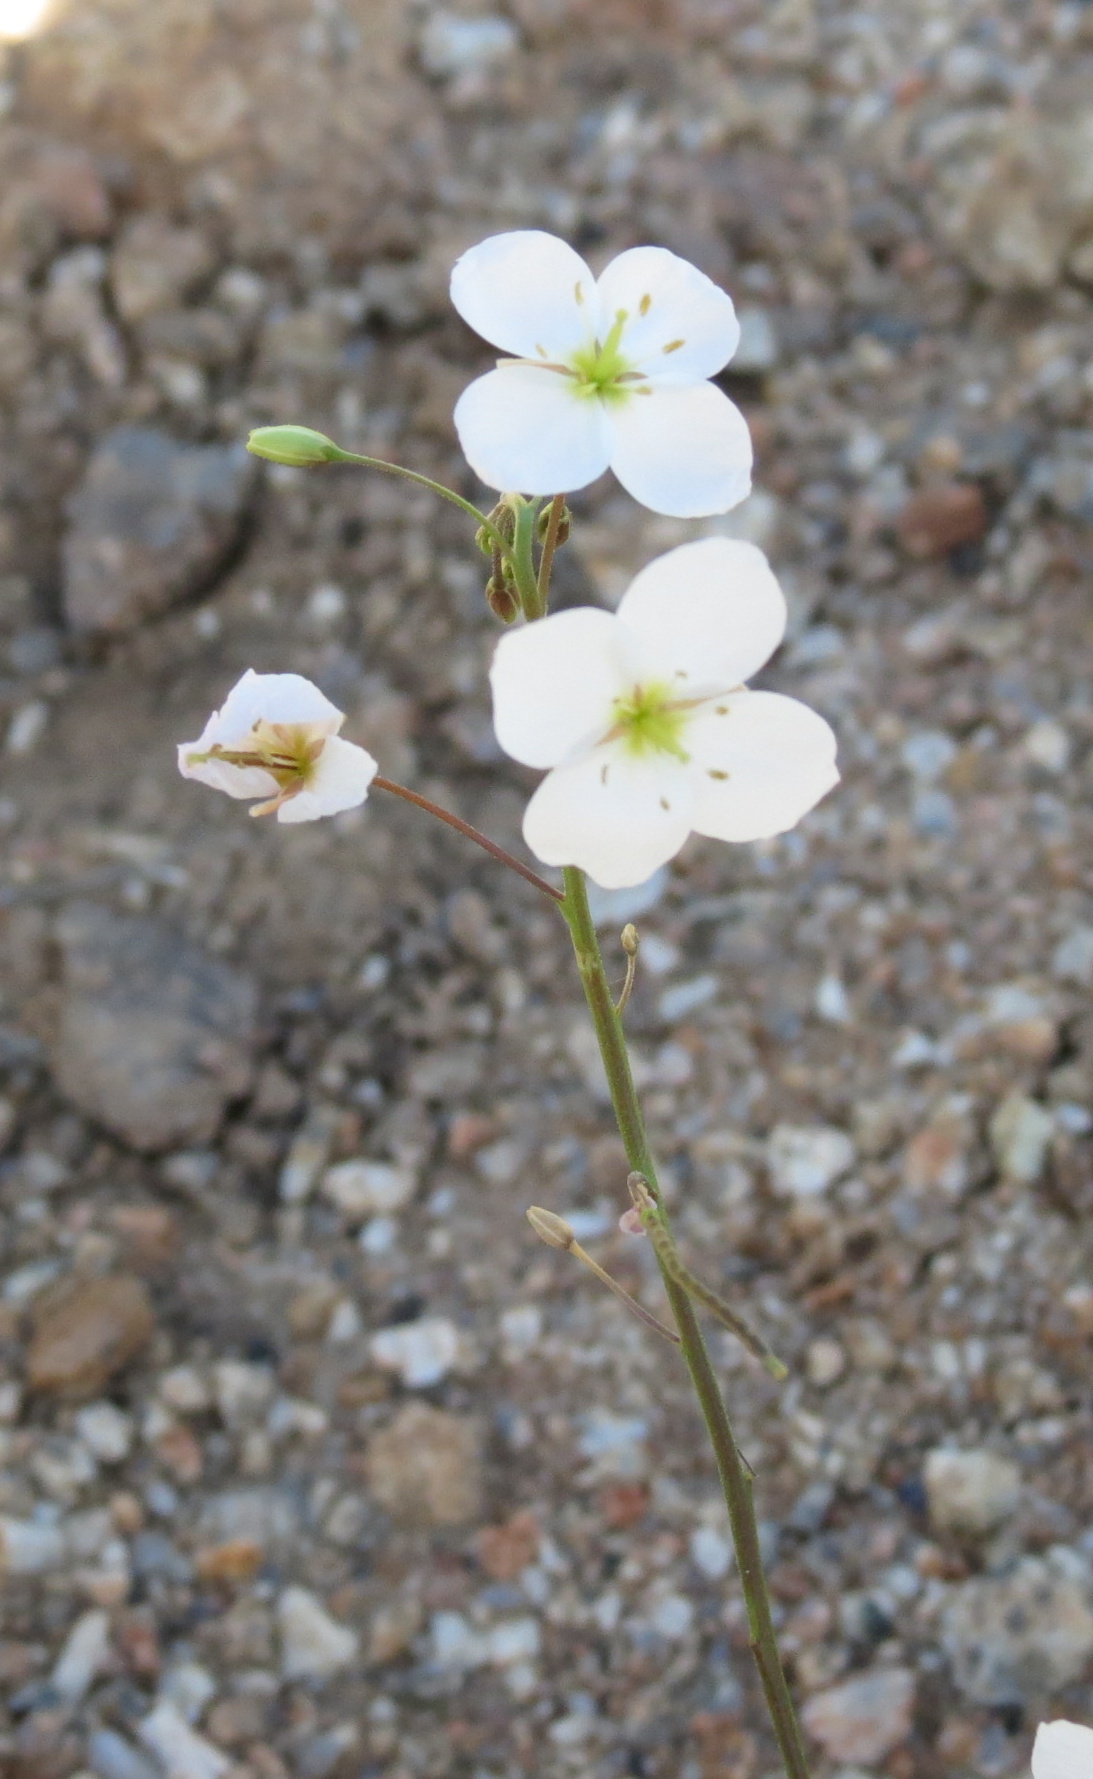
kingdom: Plantae
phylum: Tracheophyta
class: Magnoliopsida
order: Brassicales
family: Brassicaceae
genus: Heliophila
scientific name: Heliophila variabilis
